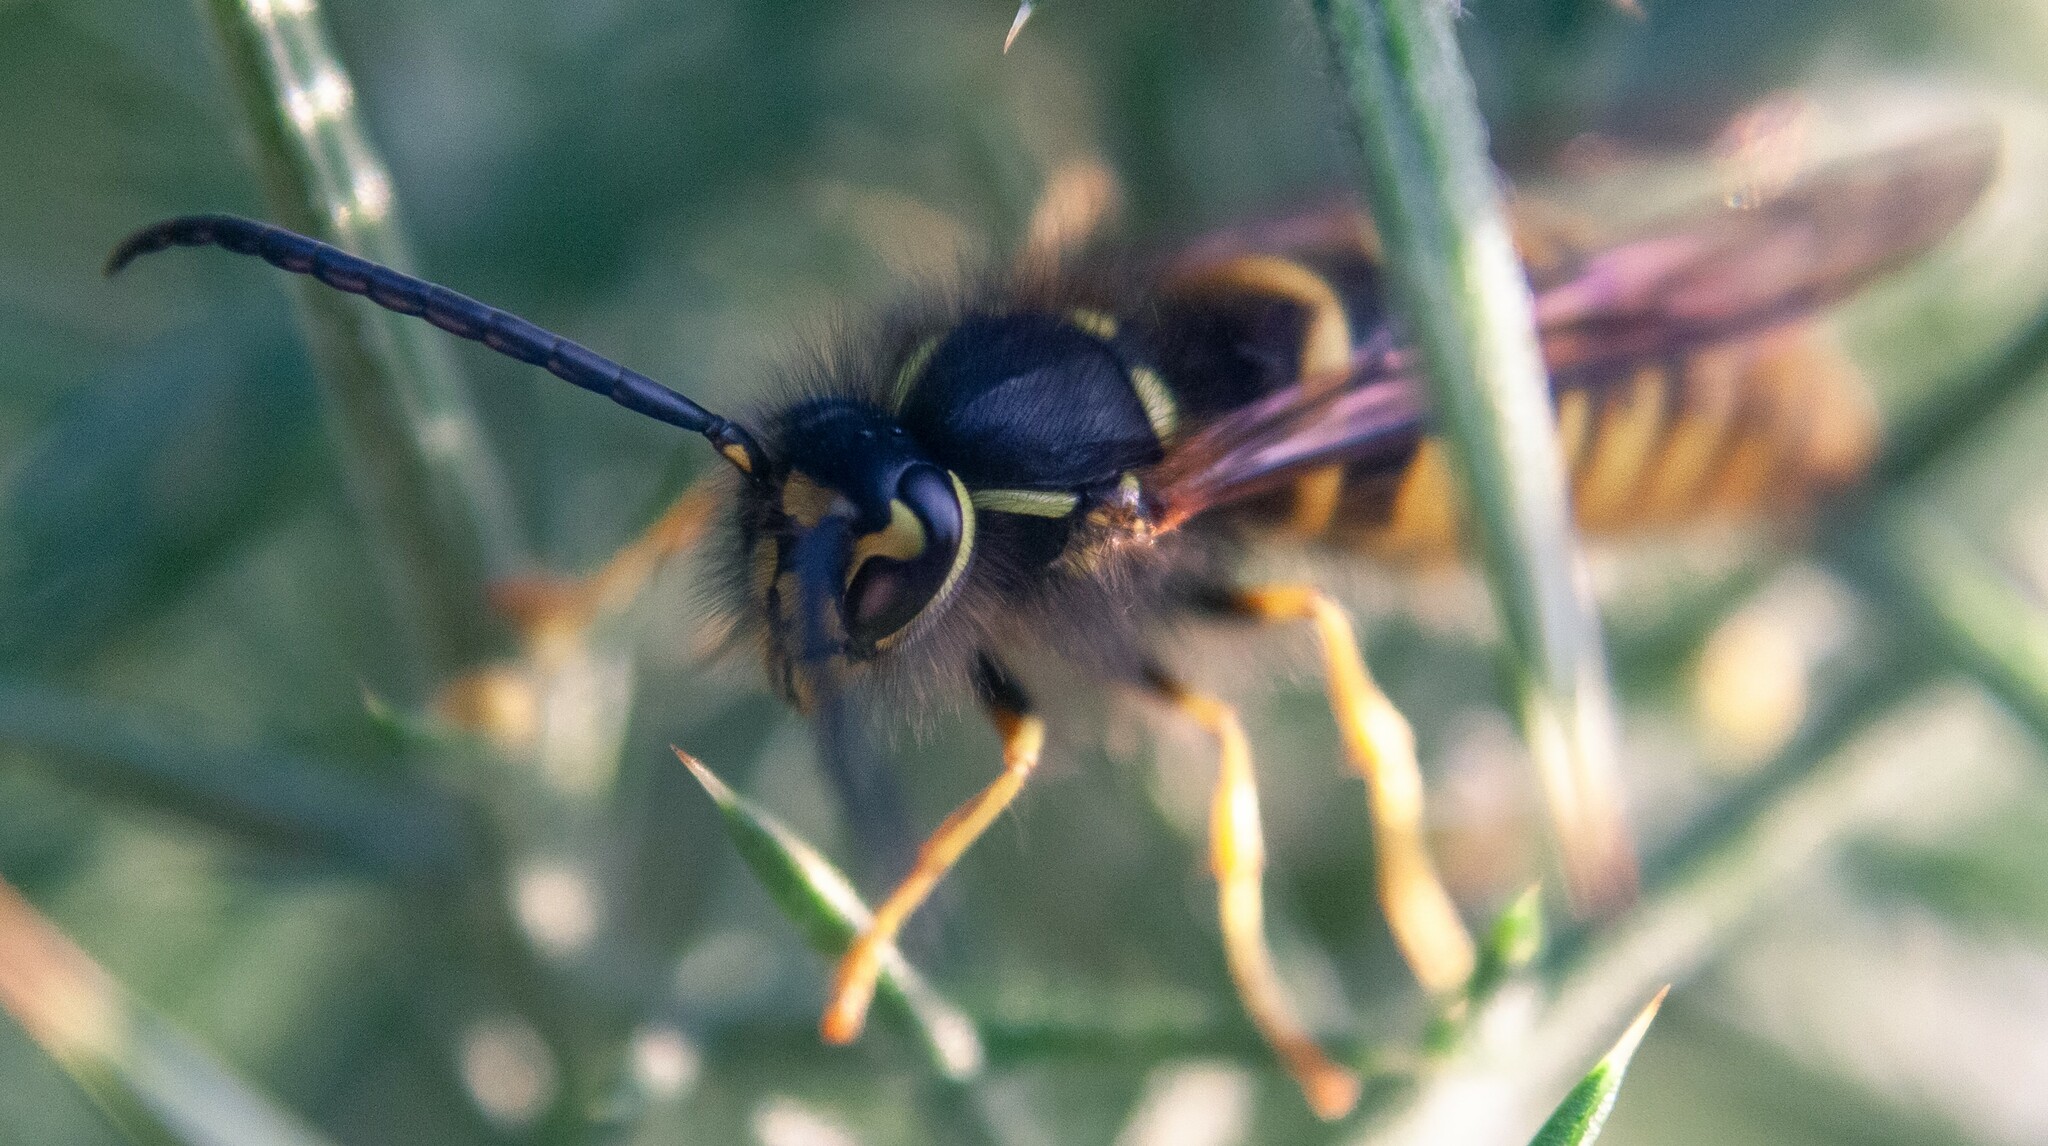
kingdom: Animalia
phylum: Arthropoda
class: Insecta
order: Hymenoptera
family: Vespidae
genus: Vespula
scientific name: Vespula vulgaris
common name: Common wasp
